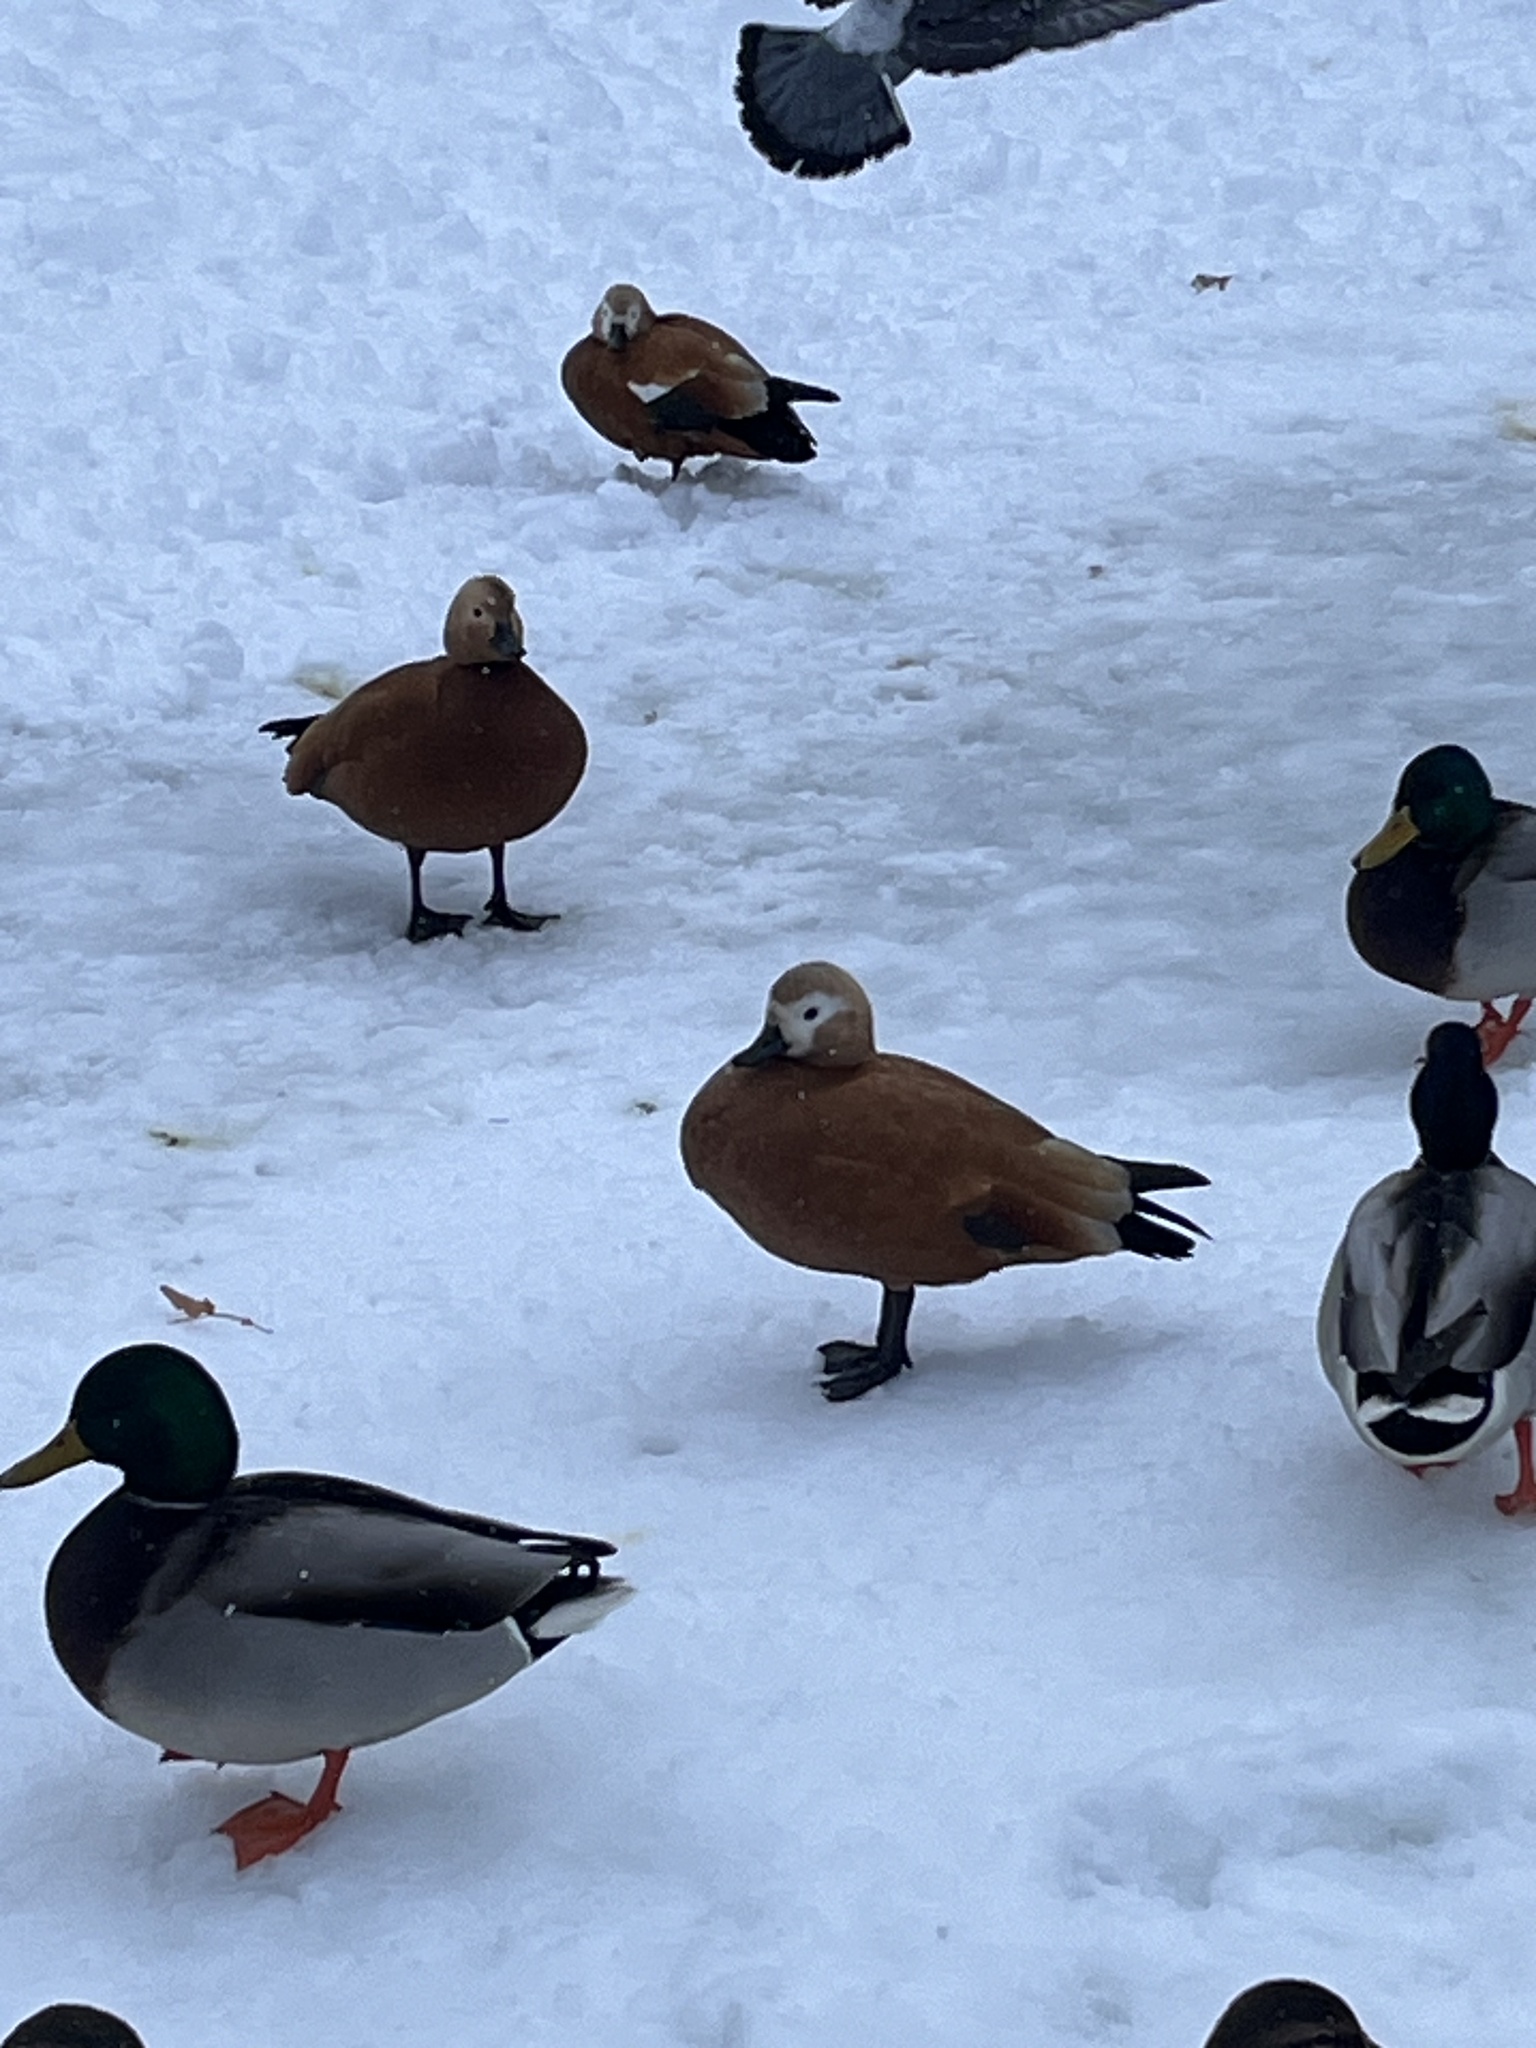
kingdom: Animalia
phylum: Chordata
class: Aves
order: Anseriformes
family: Anatidae
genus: Tadorna
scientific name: Tadorna ferruginea
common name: Ruddy shelduck
